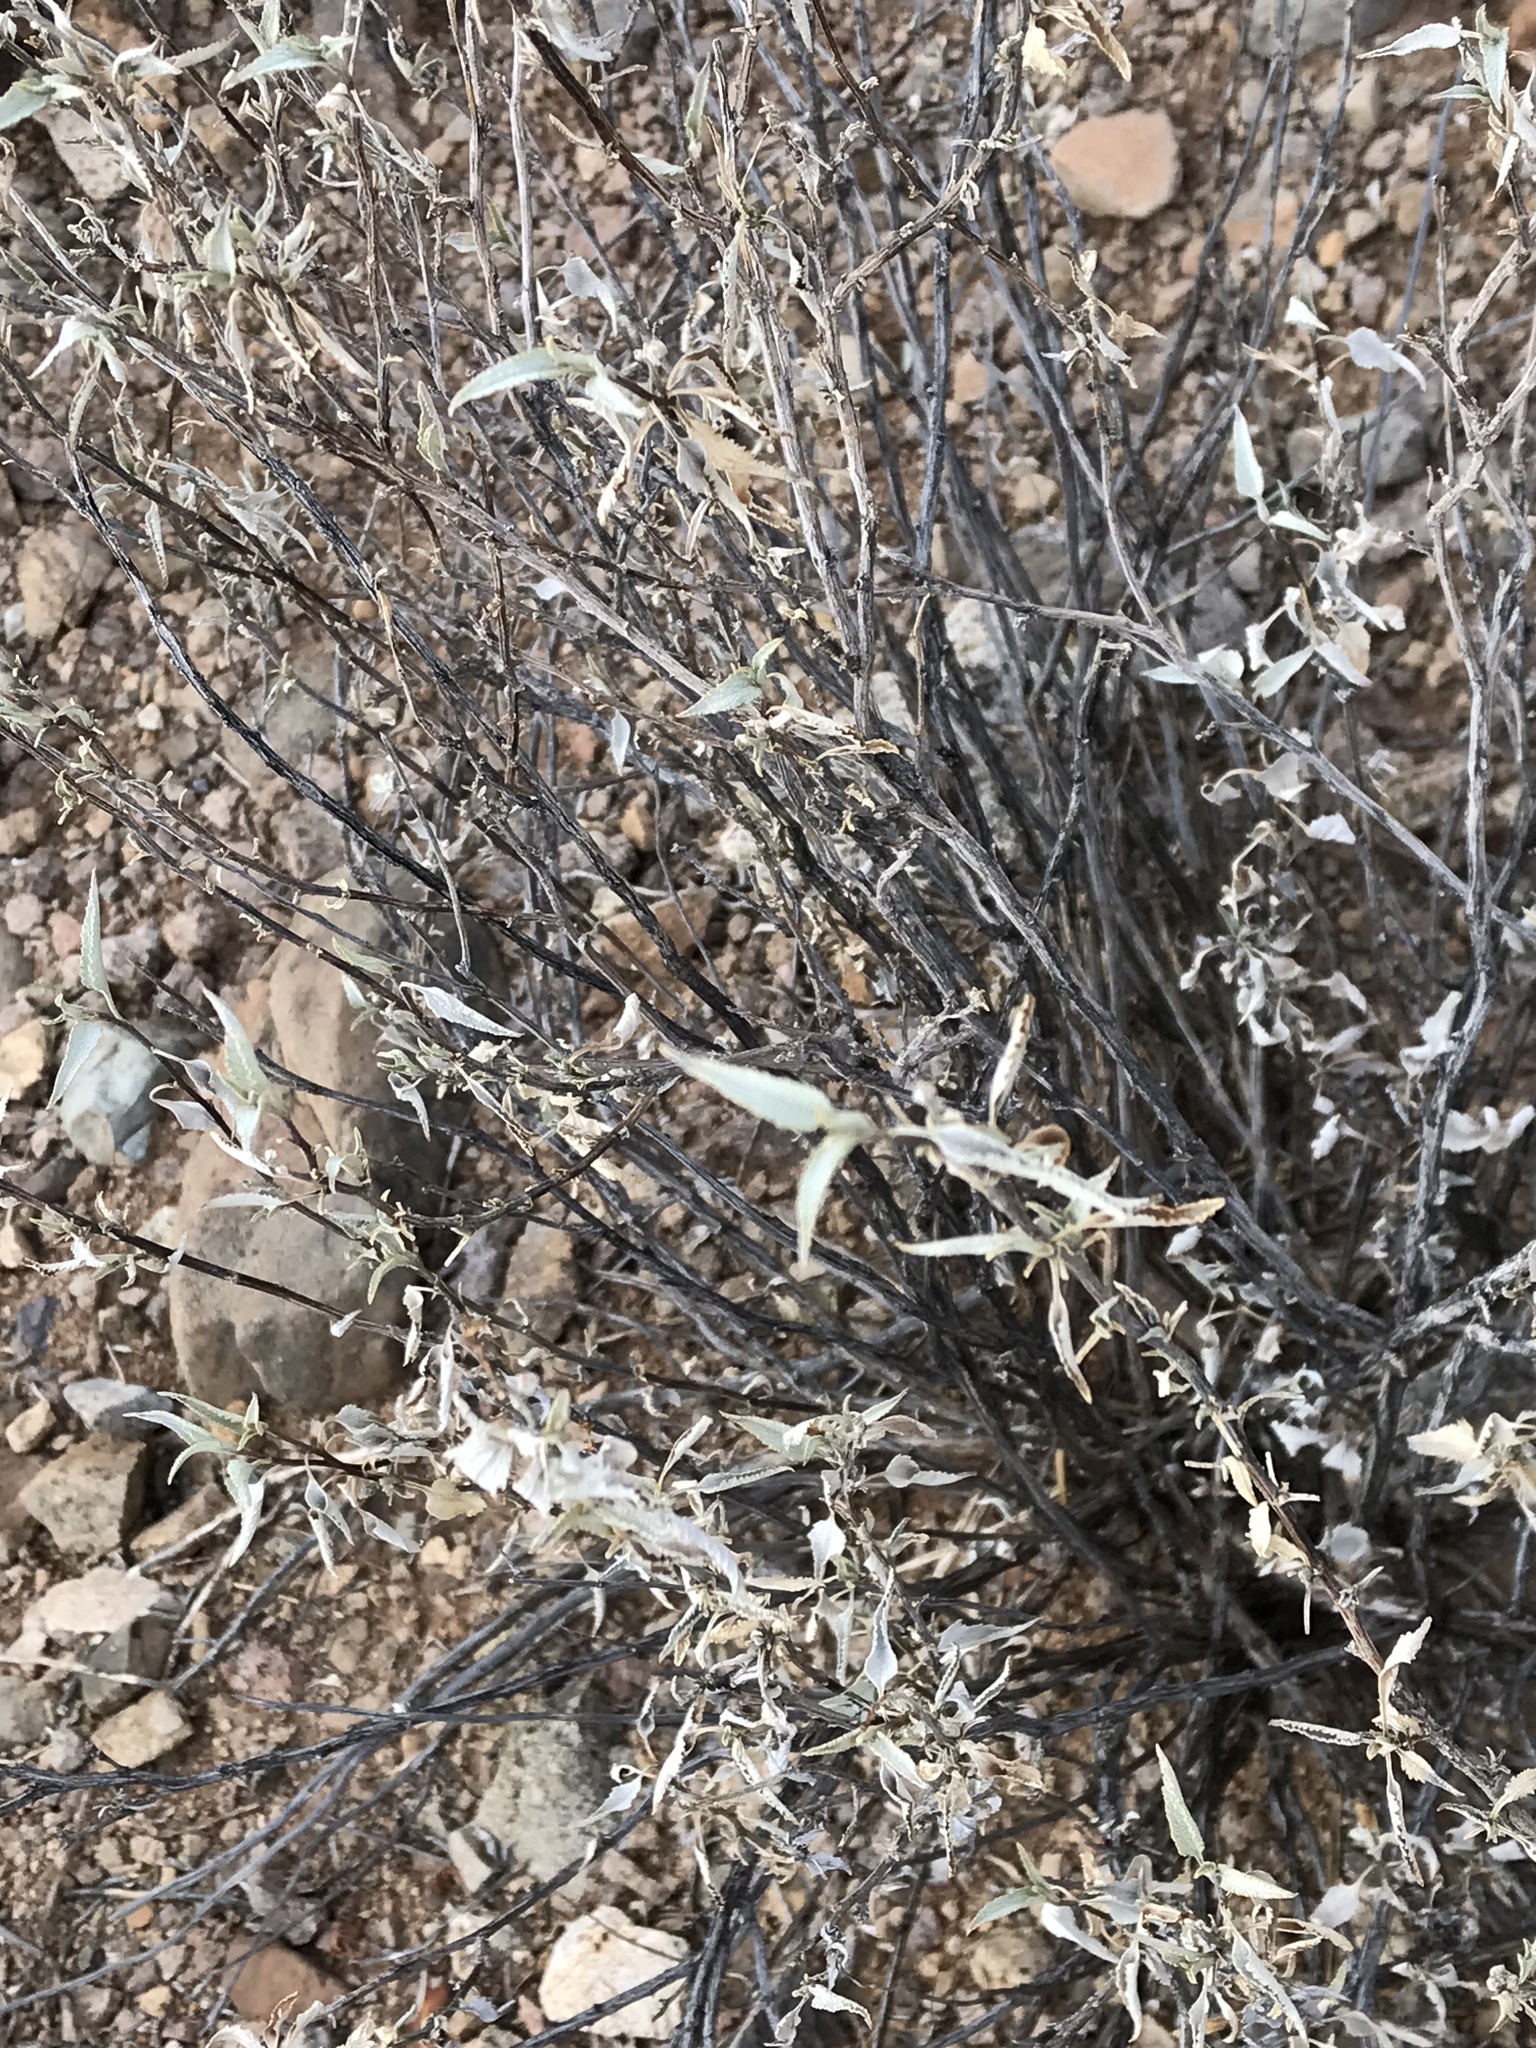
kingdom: Plantae
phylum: Tracheophyta
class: Magnoliopsida
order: Asterales
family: Asteraceae
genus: Ambrosia
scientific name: Ambrosia deltoidea
